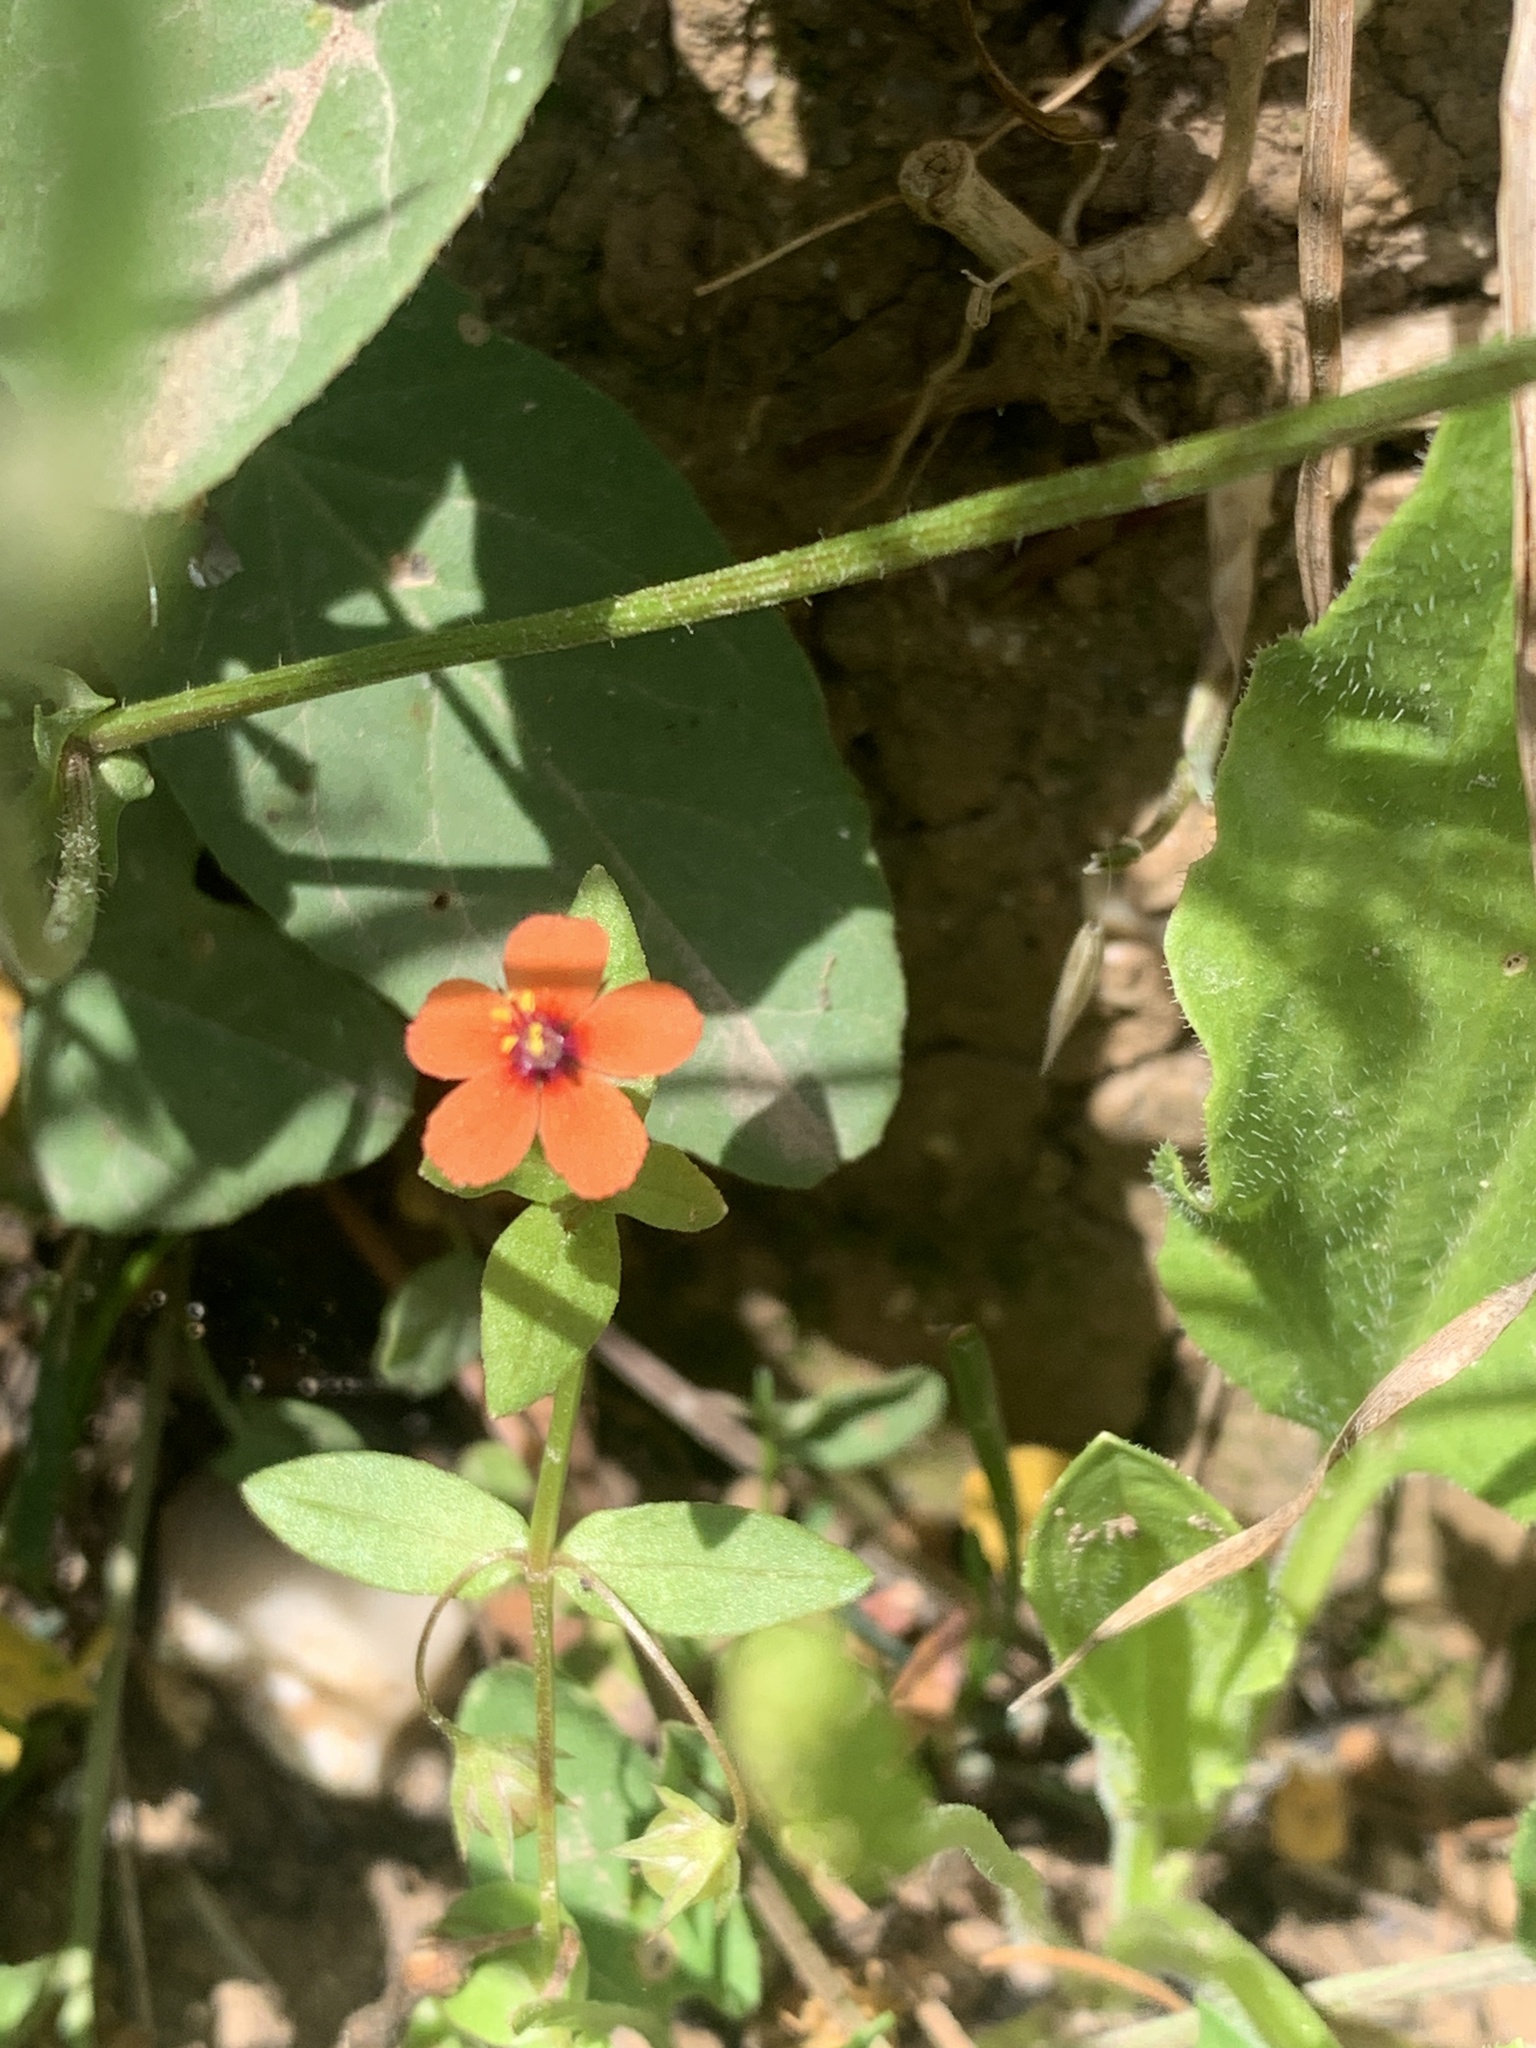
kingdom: Plantae
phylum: Tracheophyta
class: Magnoliopsida
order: Ericales
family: Primulaceae
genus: Lysimachia
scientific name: Lysimachia arvensis
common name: Scarlet pimpernel
